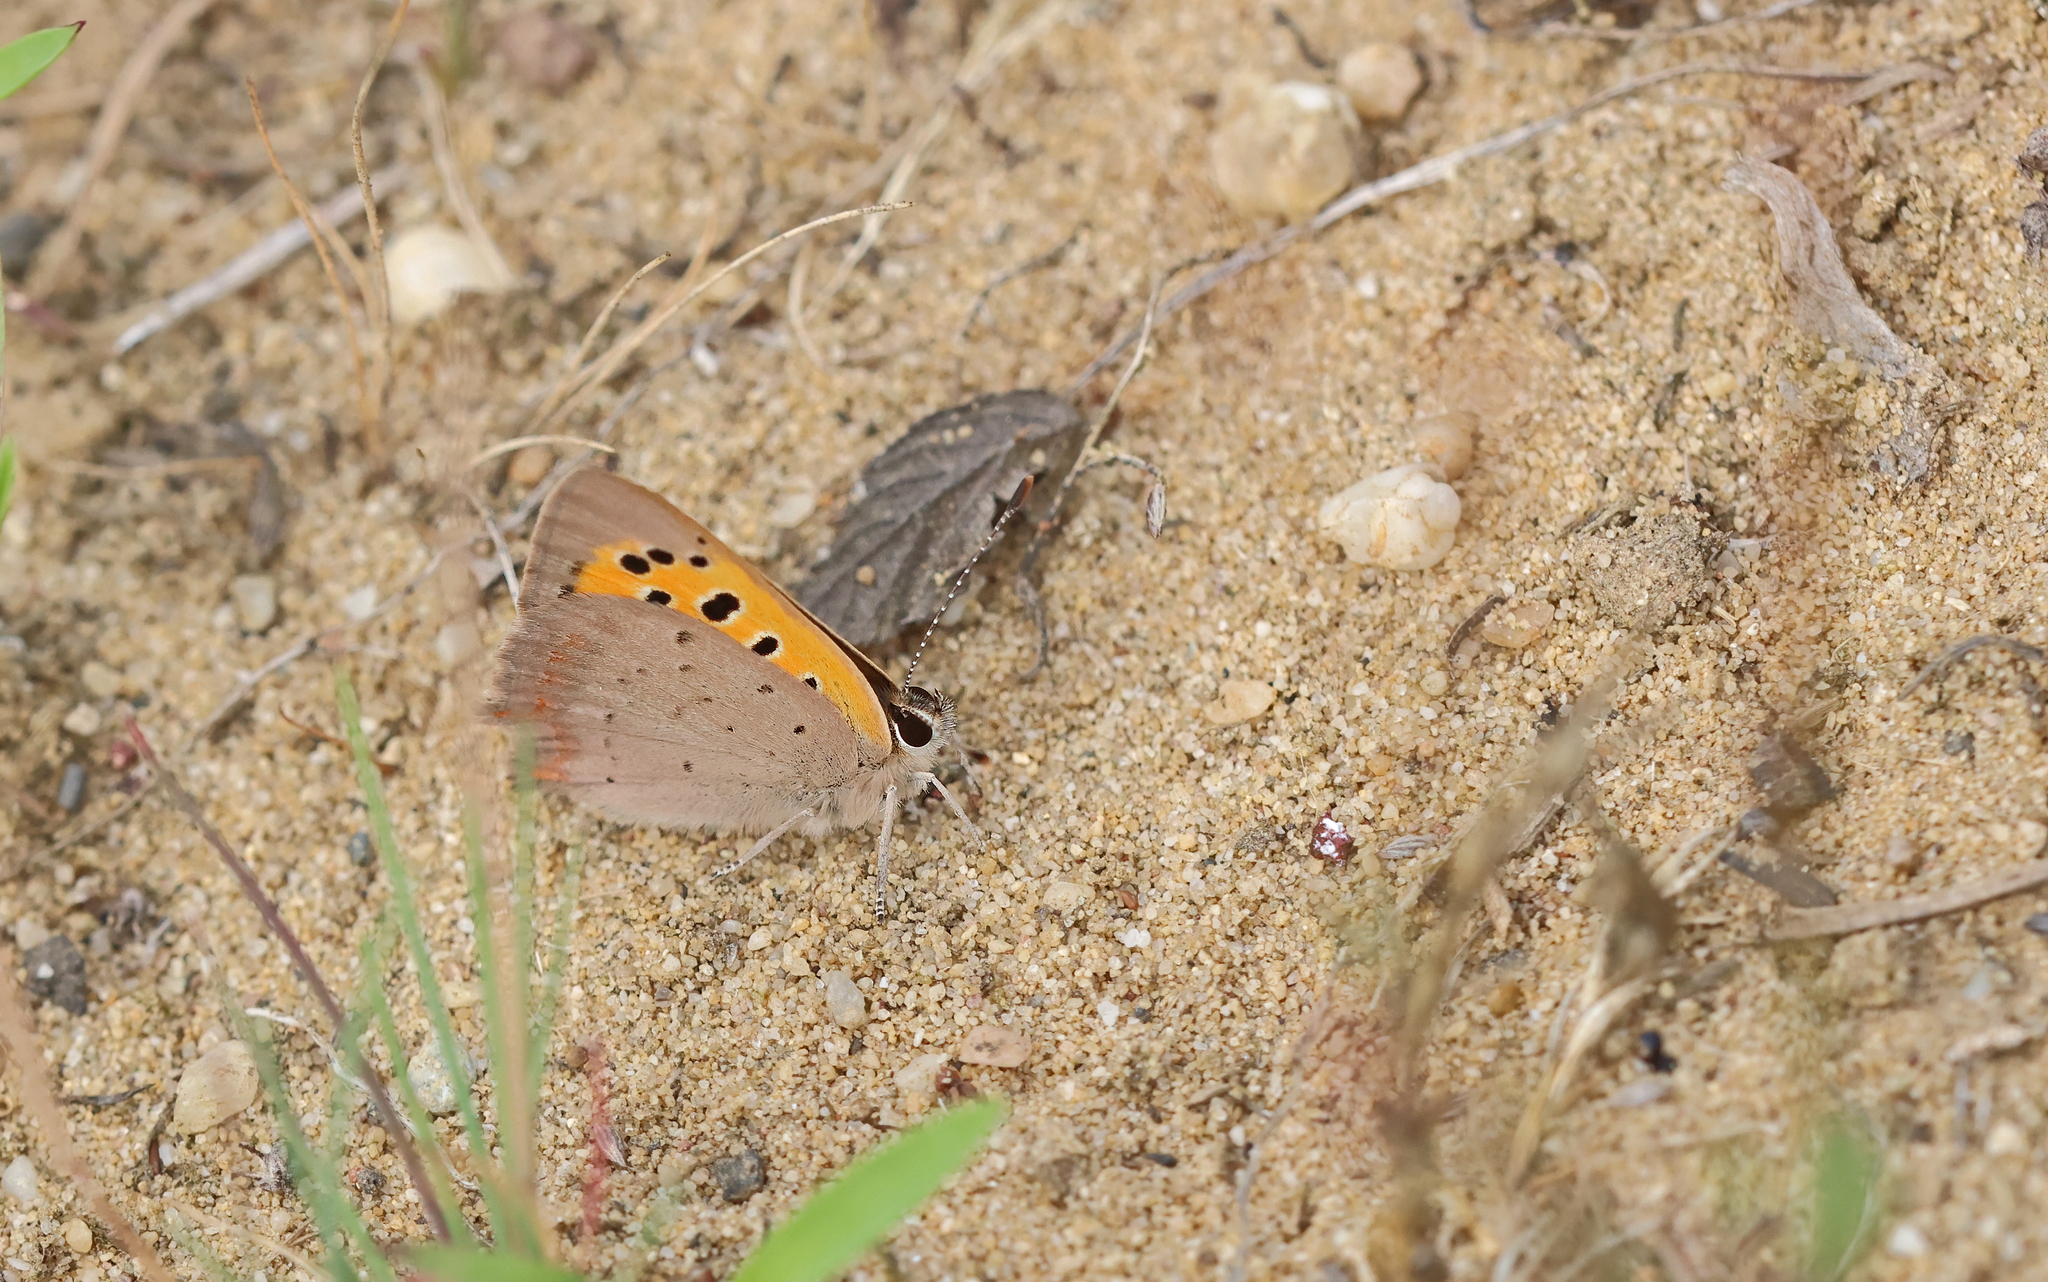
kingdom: Animalia
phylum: Arthropoda
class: Insecta
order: Lepidoptera
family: Lycaenidae
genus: Lycaena
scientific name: Lycaena phlaeas
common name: Small copper
